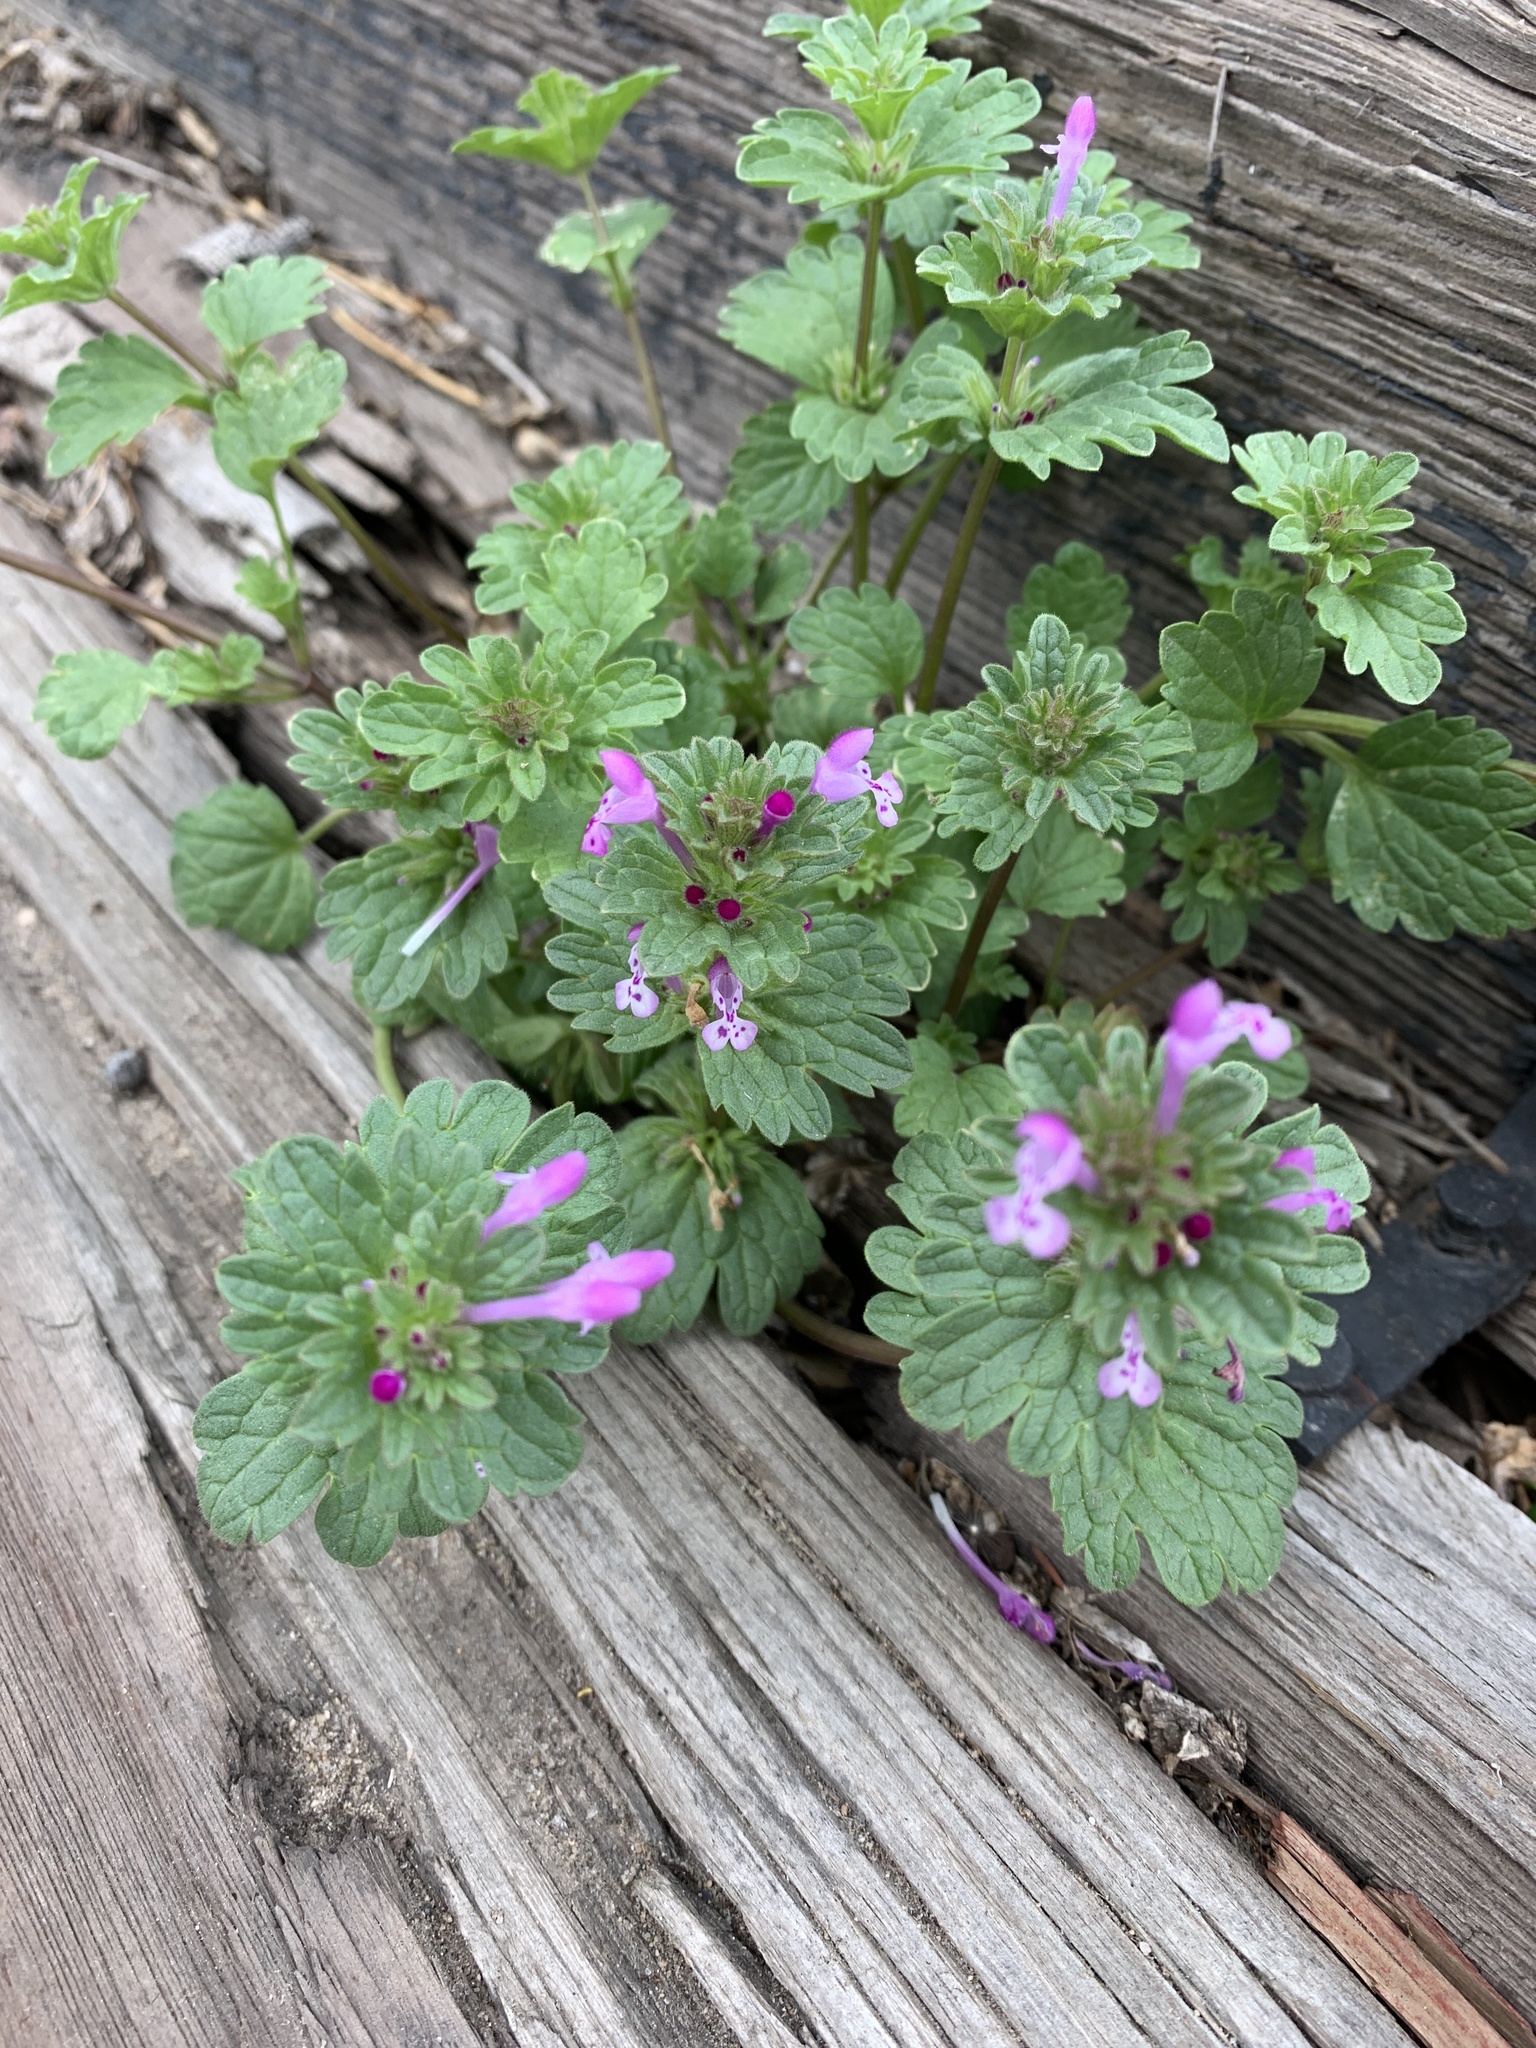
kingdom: Plantae
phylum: Tracheophyta
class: Magnoliopsida
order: Lamiales
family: Lamiaceae
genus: Lamium
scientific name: Lamium amplexicaule
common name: Henbit dead-nettle
